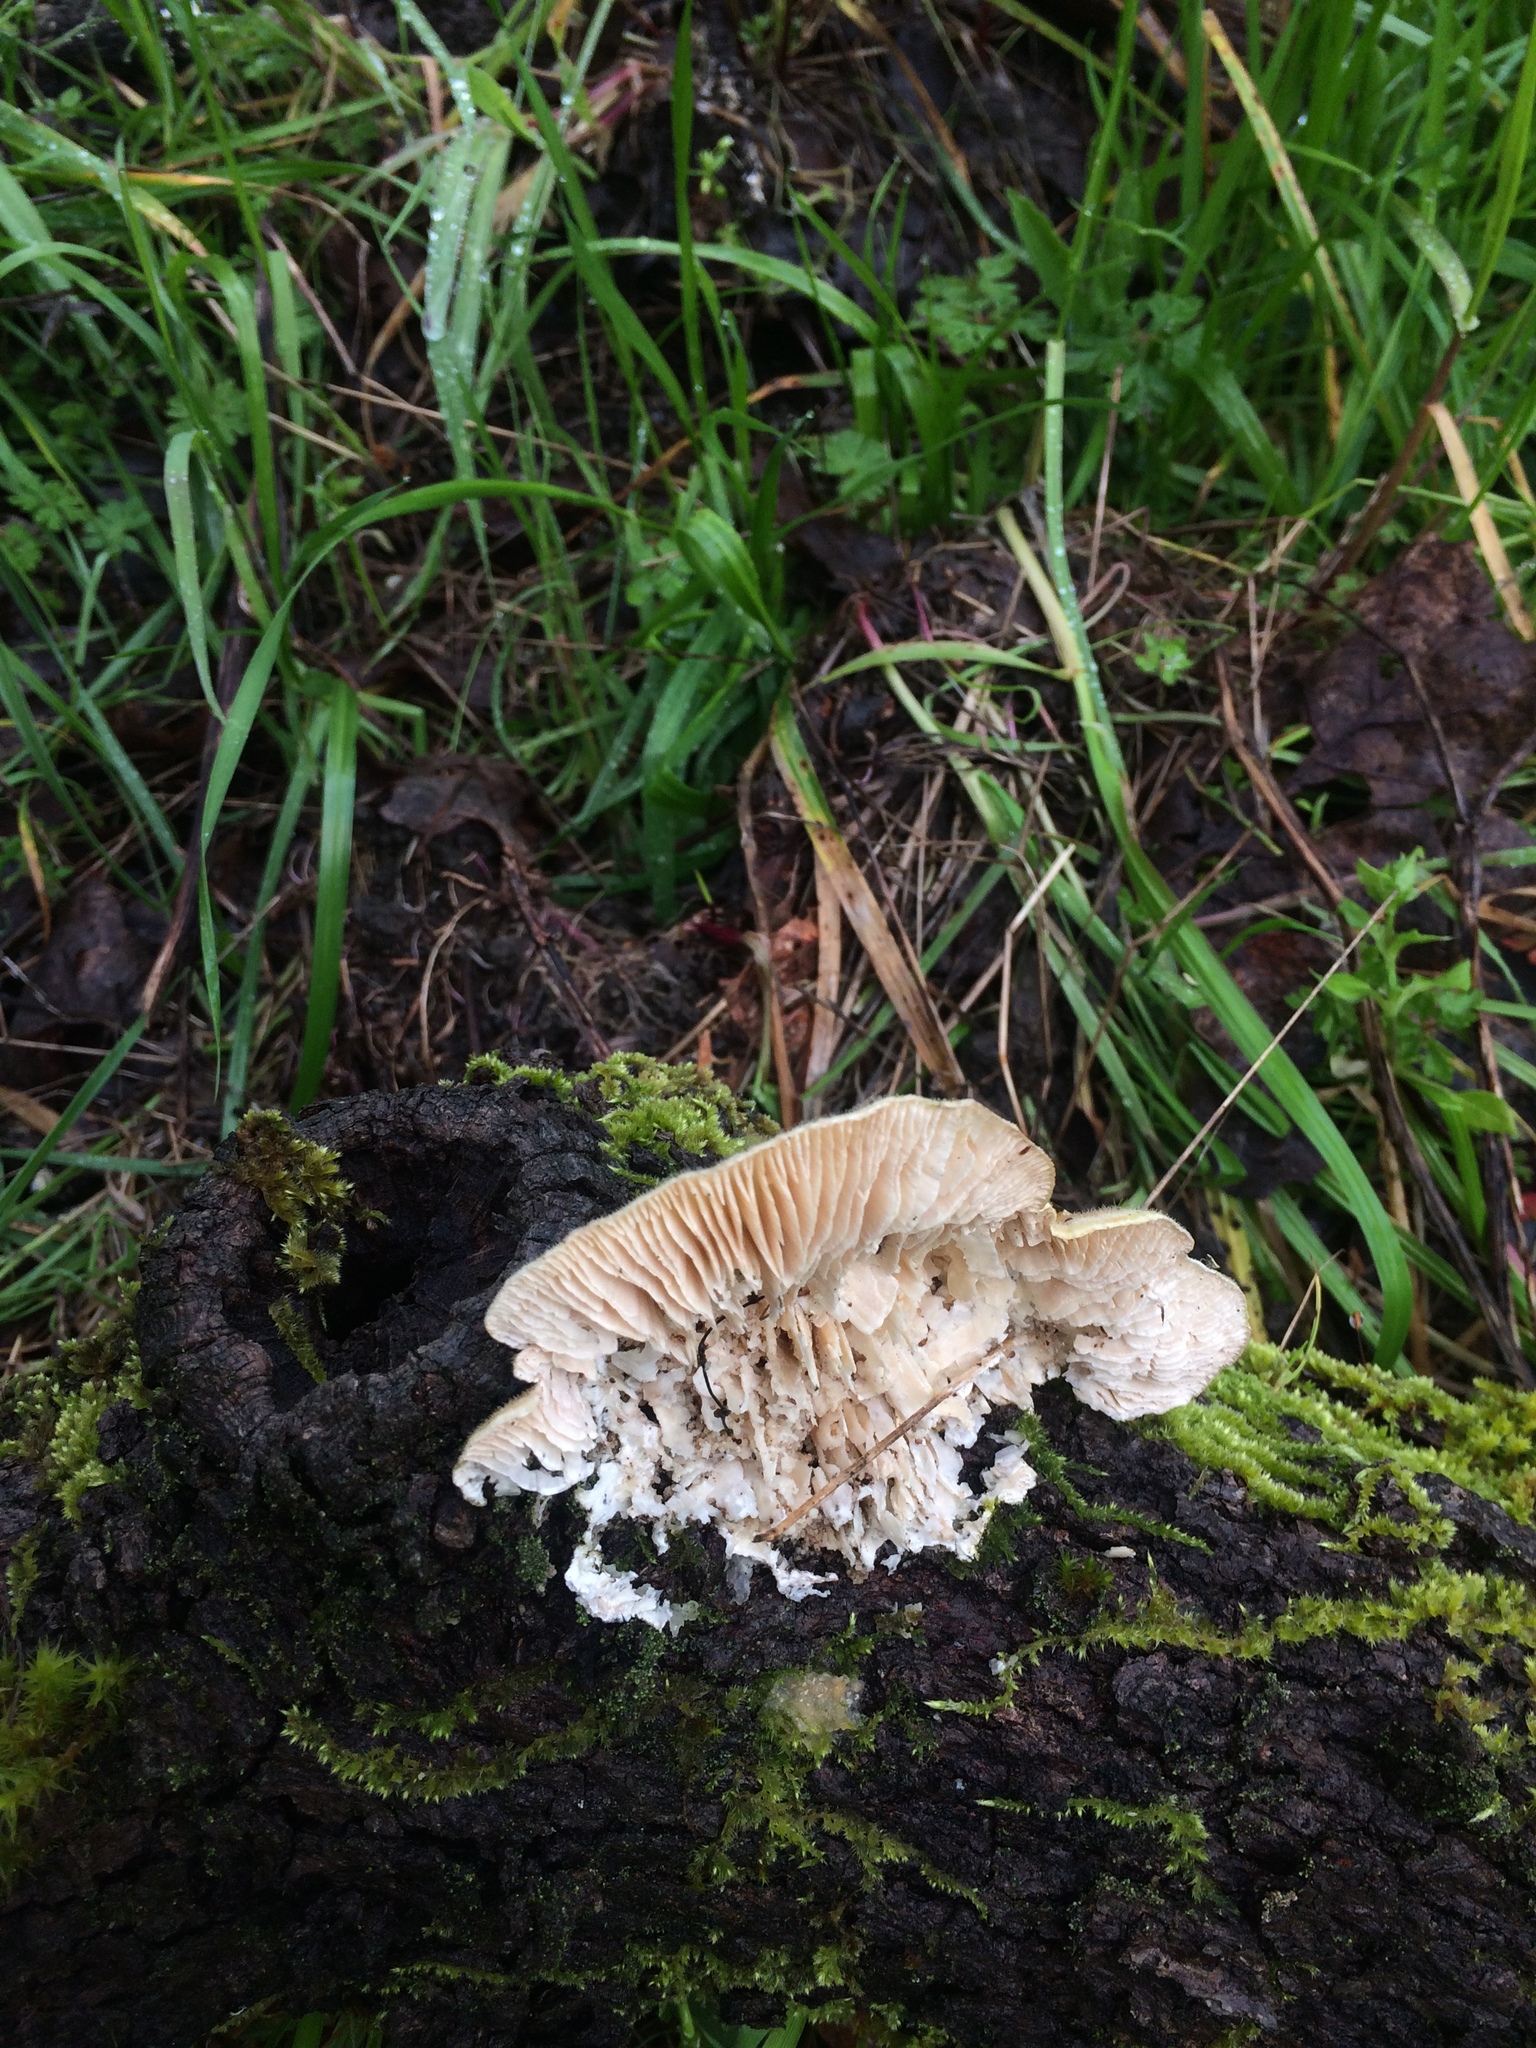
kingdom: Fungi
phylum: Basidiomycota
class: Agaricomycetes
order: Polyporales
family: Polyporaceae
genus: Lenzites
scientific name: Lenzites betulinus
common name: Birch mazegill
